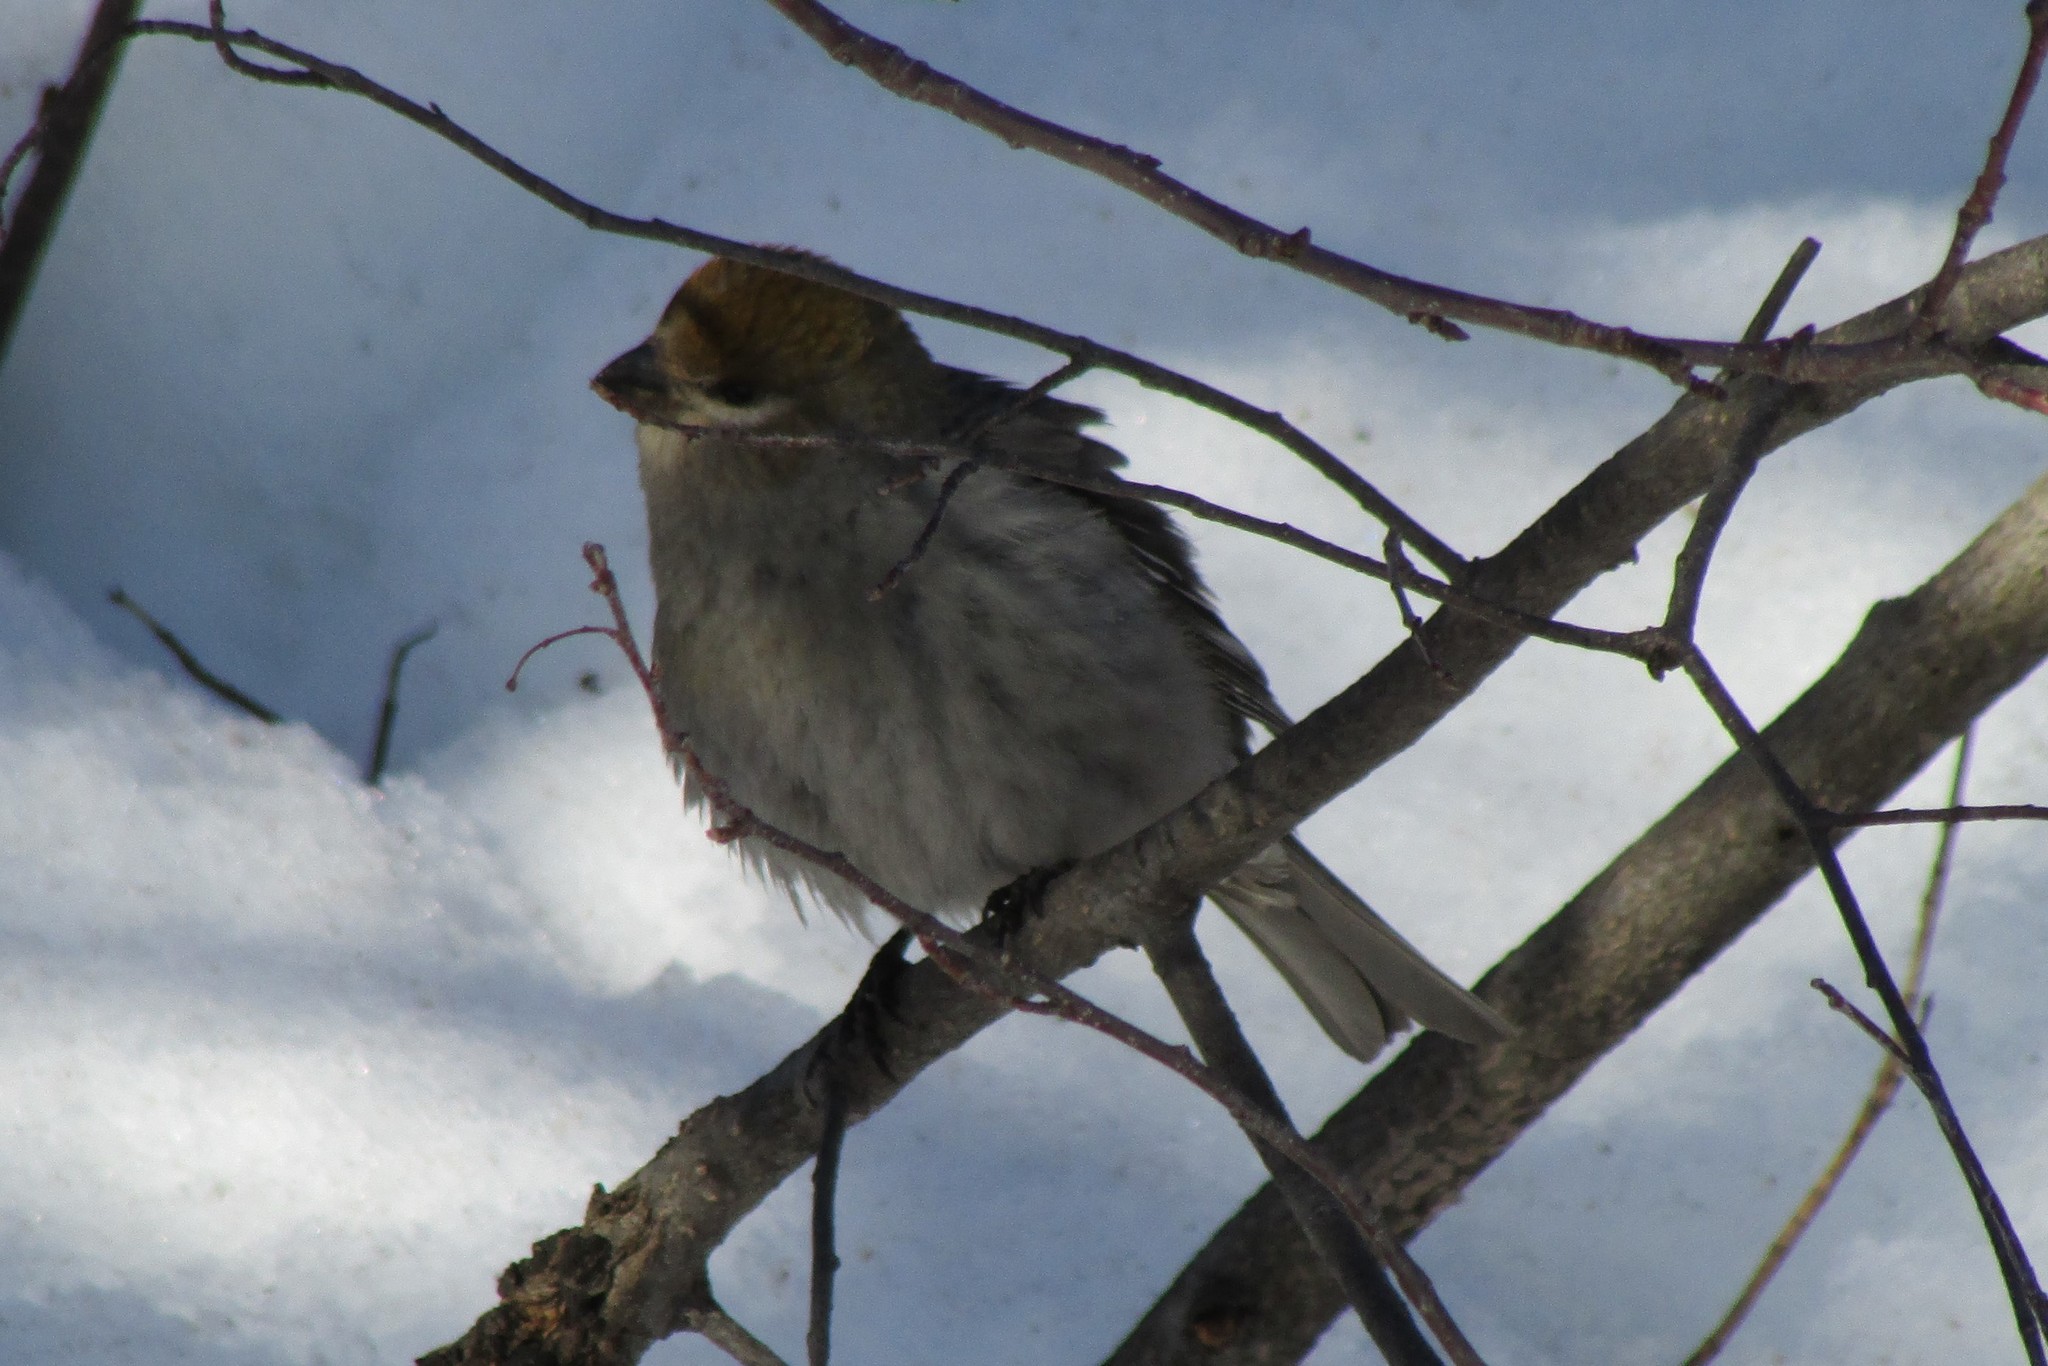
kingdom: Animalia
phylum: Chordata
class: Aves
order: Passeriformes
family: Fringillidae
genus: Pinicola
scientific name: Pinicola enucleator
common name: Pine grosbeak
